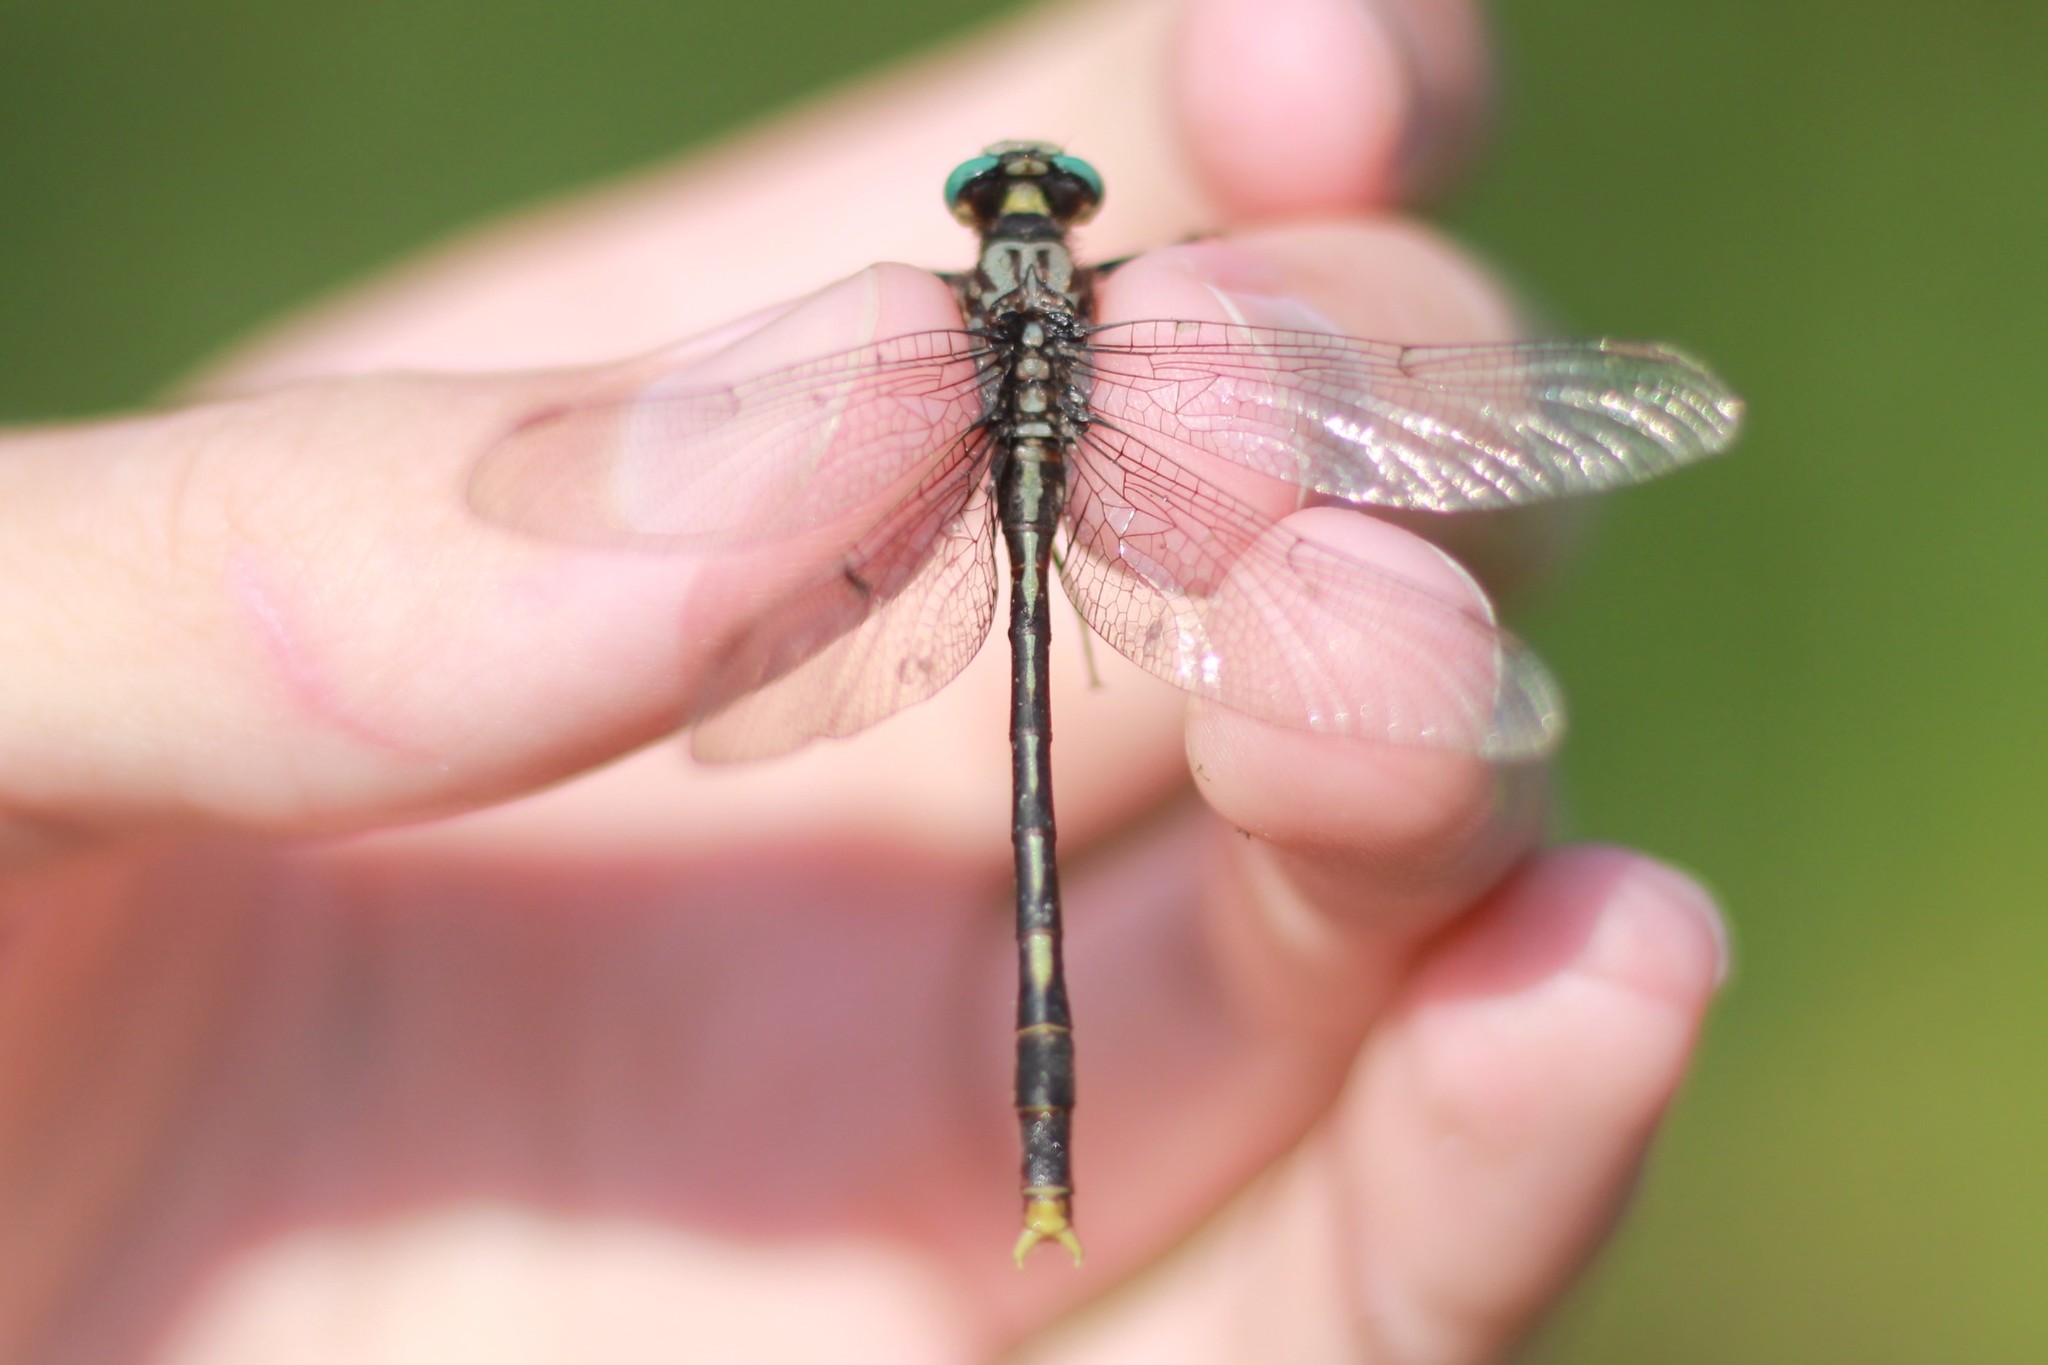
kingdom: Animalia
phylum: Arthropoda
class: Insecta
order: Odonata
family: Gomphidae
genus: Arigomphus
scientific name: Arigomphus villosipes
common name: Unicorn clubtail
